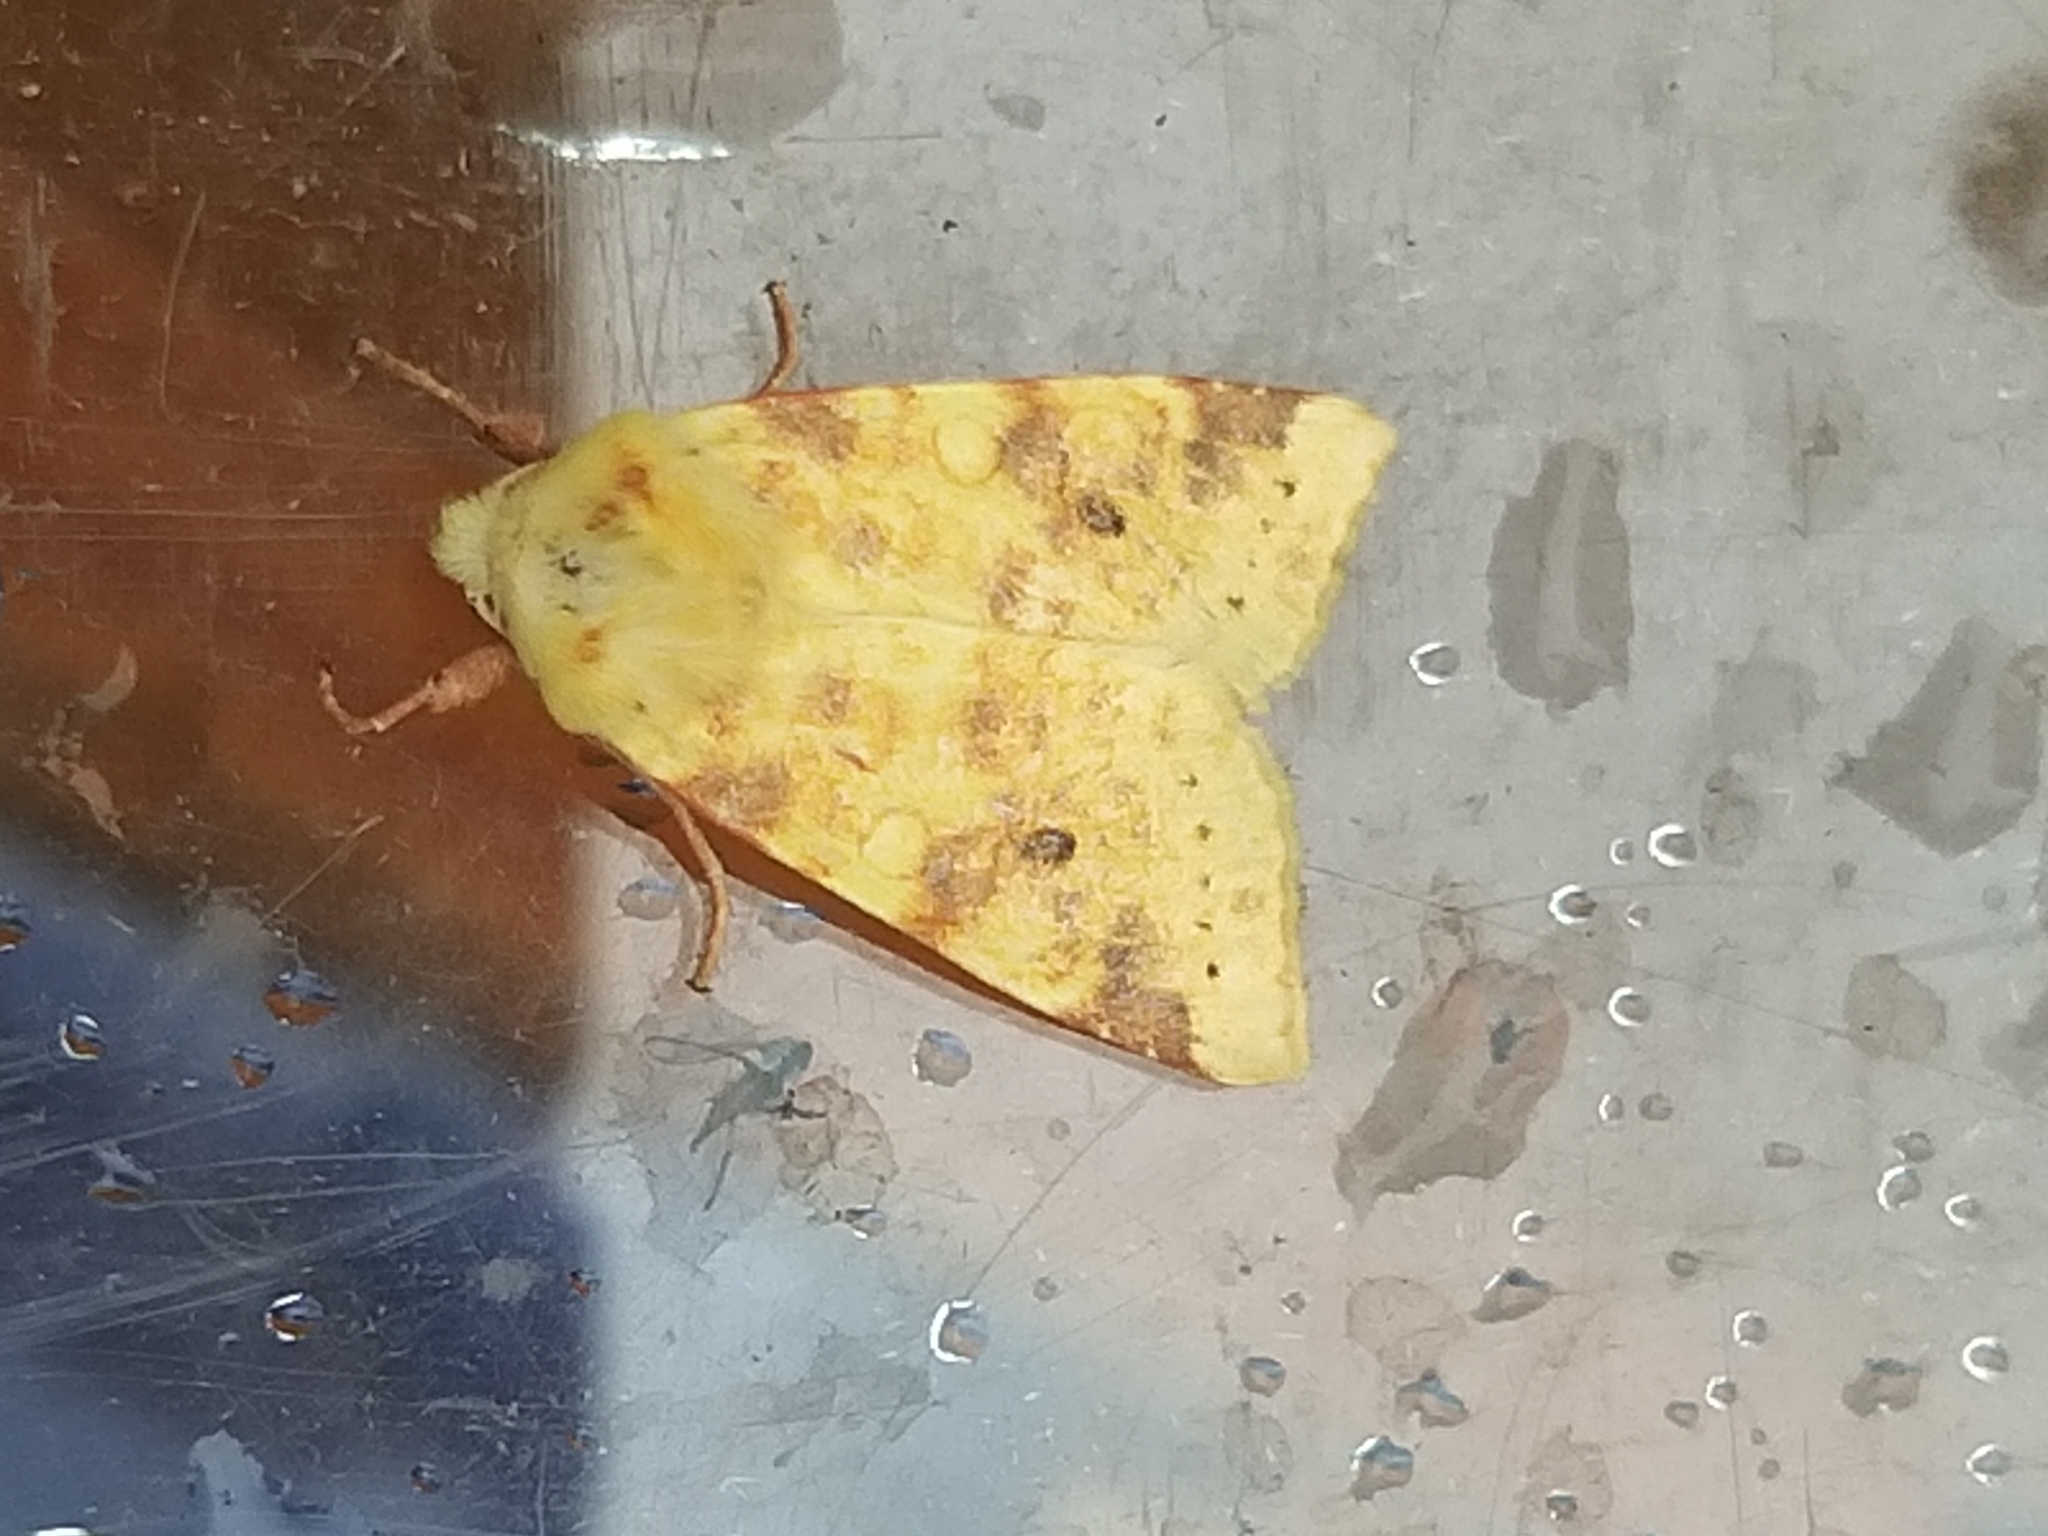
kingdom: Animalia
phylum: Arthropoda
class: Insecta
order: Lepidoptera
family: Noctuidae
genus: Xanthia
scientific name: Xanthia icteritia
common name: The sallow
